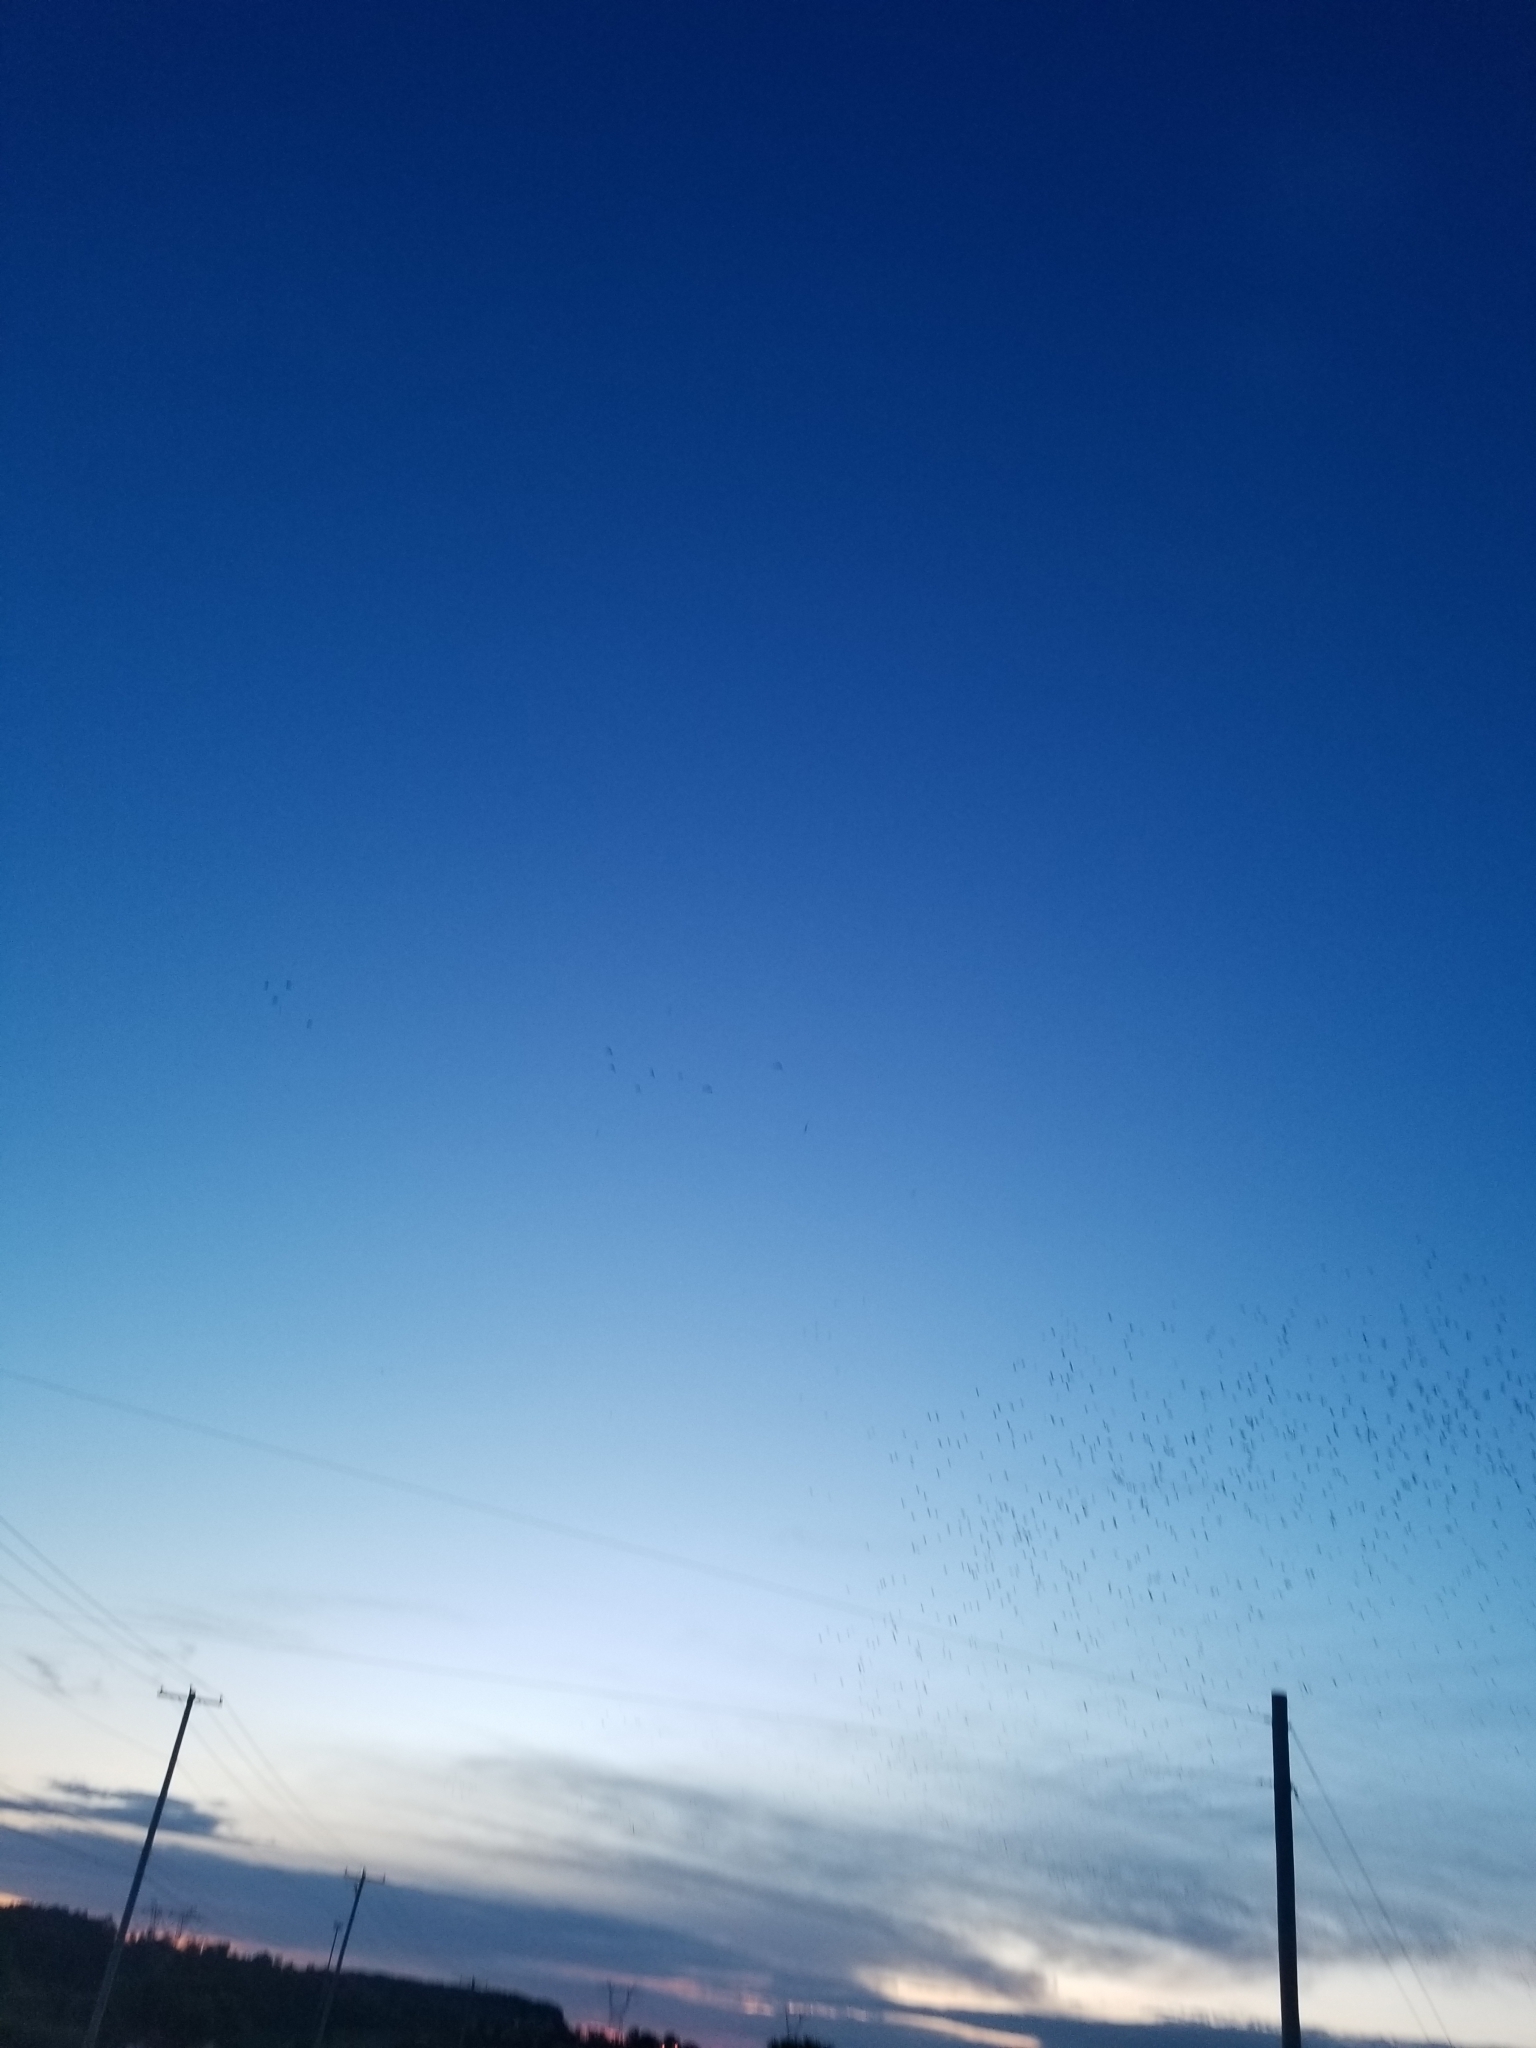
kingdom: Animalia
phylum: Chordata
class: Aves
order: Passeriformes
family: Sturnidae
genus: Sturnus
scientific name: Sturnus vulgaris
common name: Common starling
